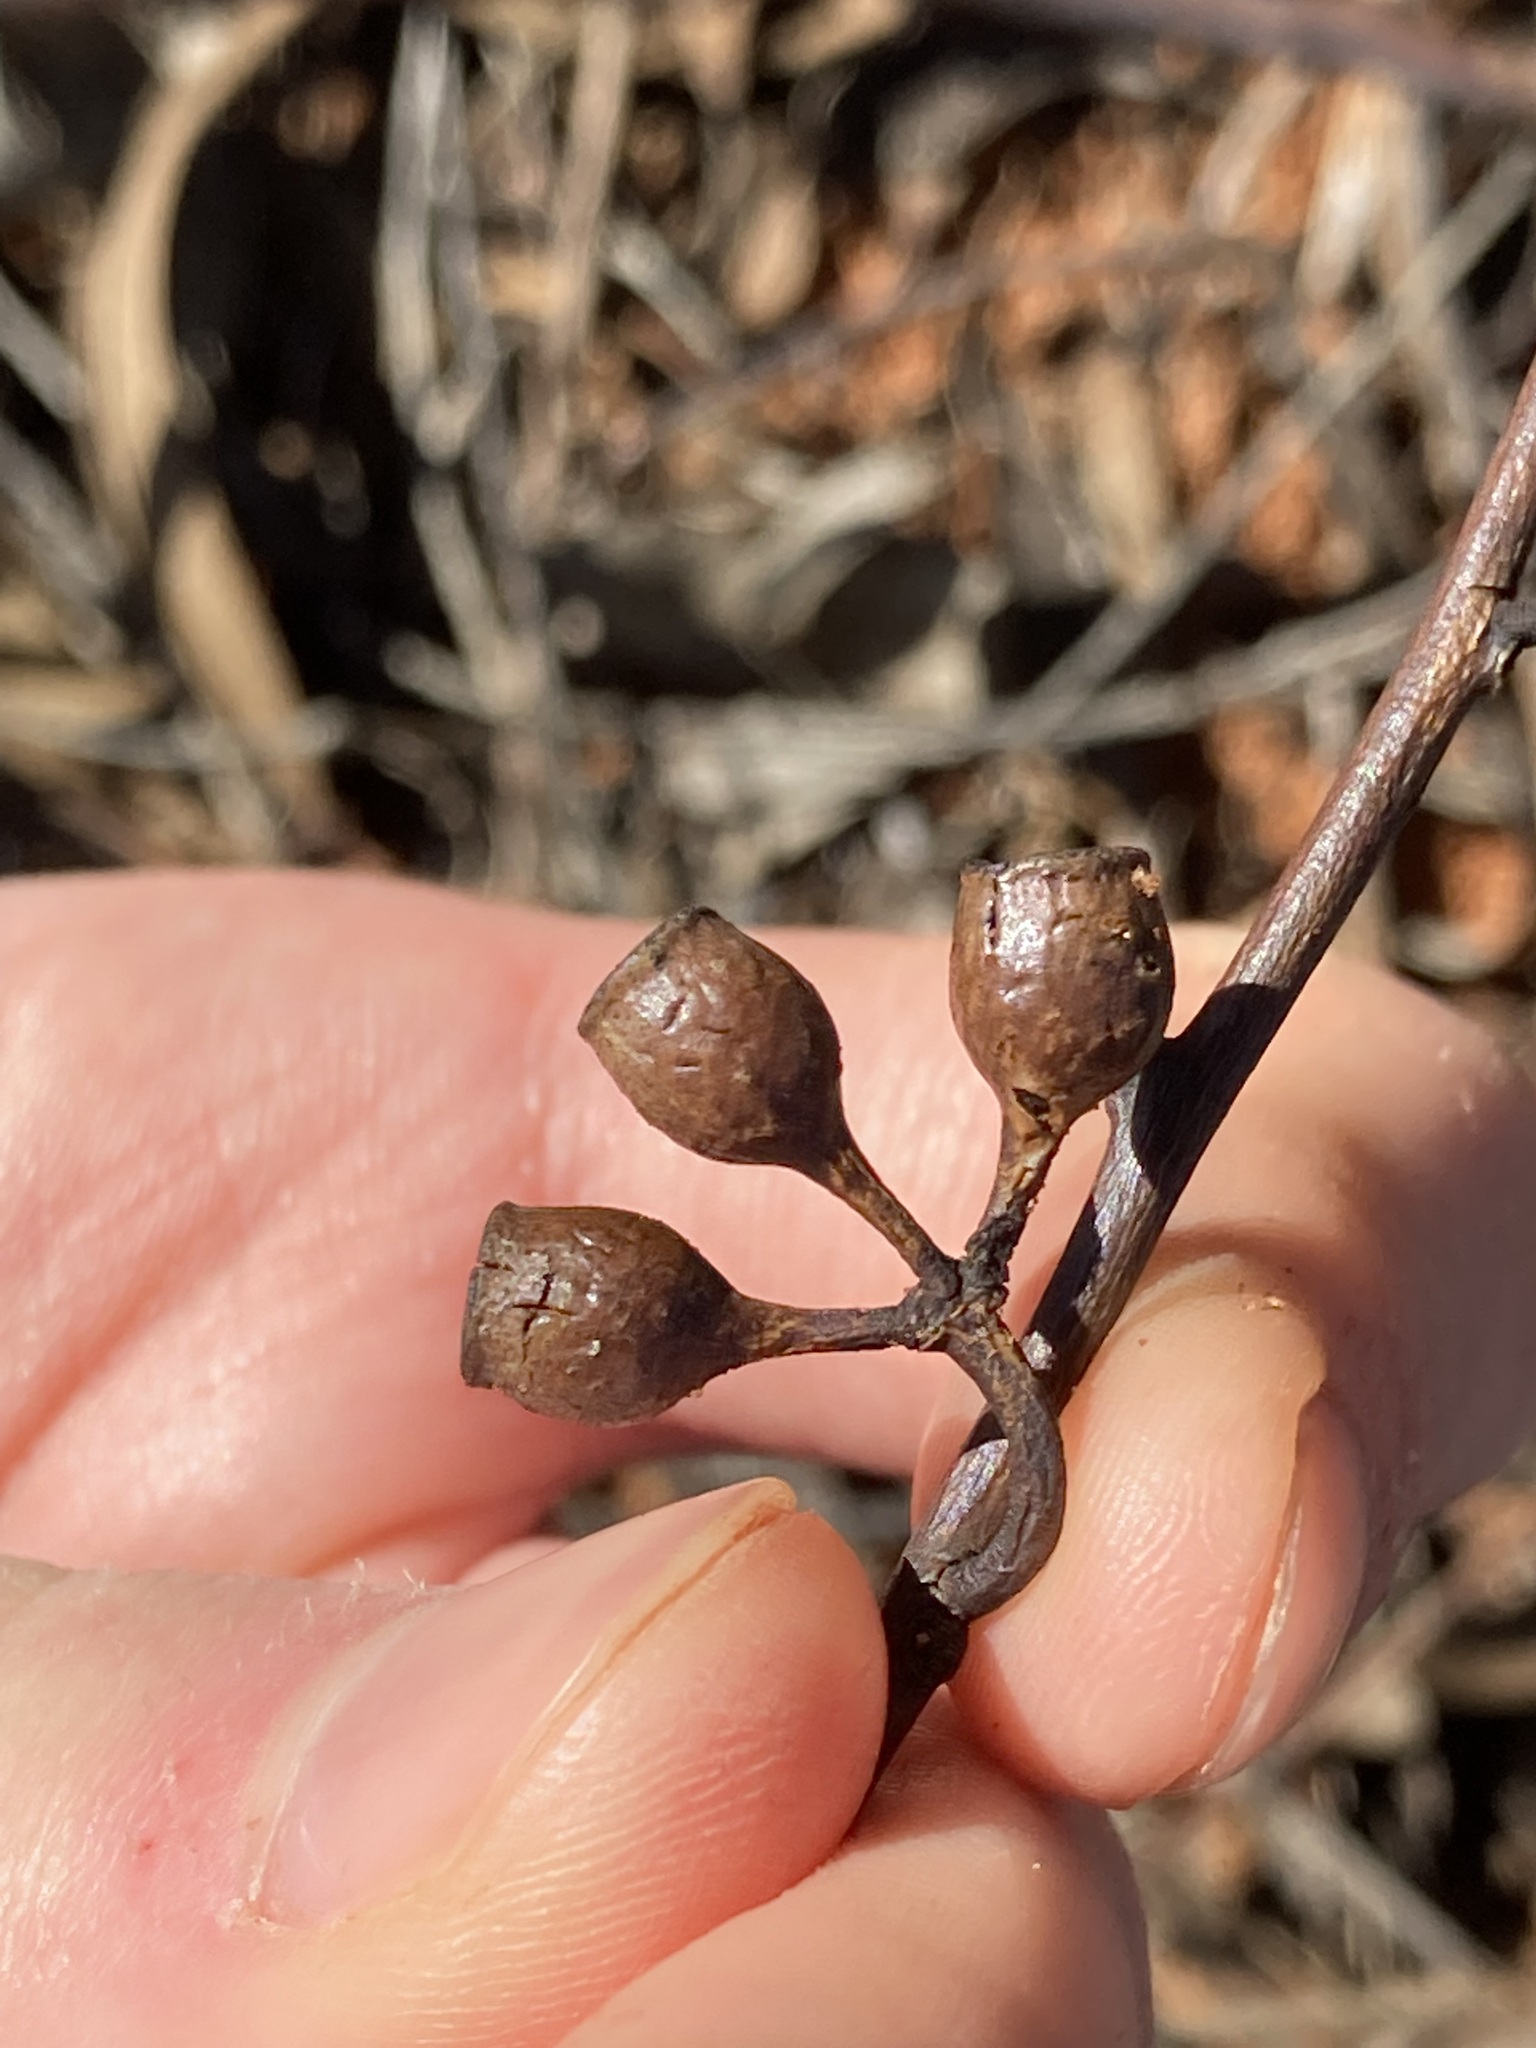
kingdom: Plantae
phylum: Tracheophyta
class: Magnoliopsida
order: Myrtales
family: Myrtaceae
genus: Eucalyptus
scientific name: Eucalyptus transcontinentalis
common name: Redwood
